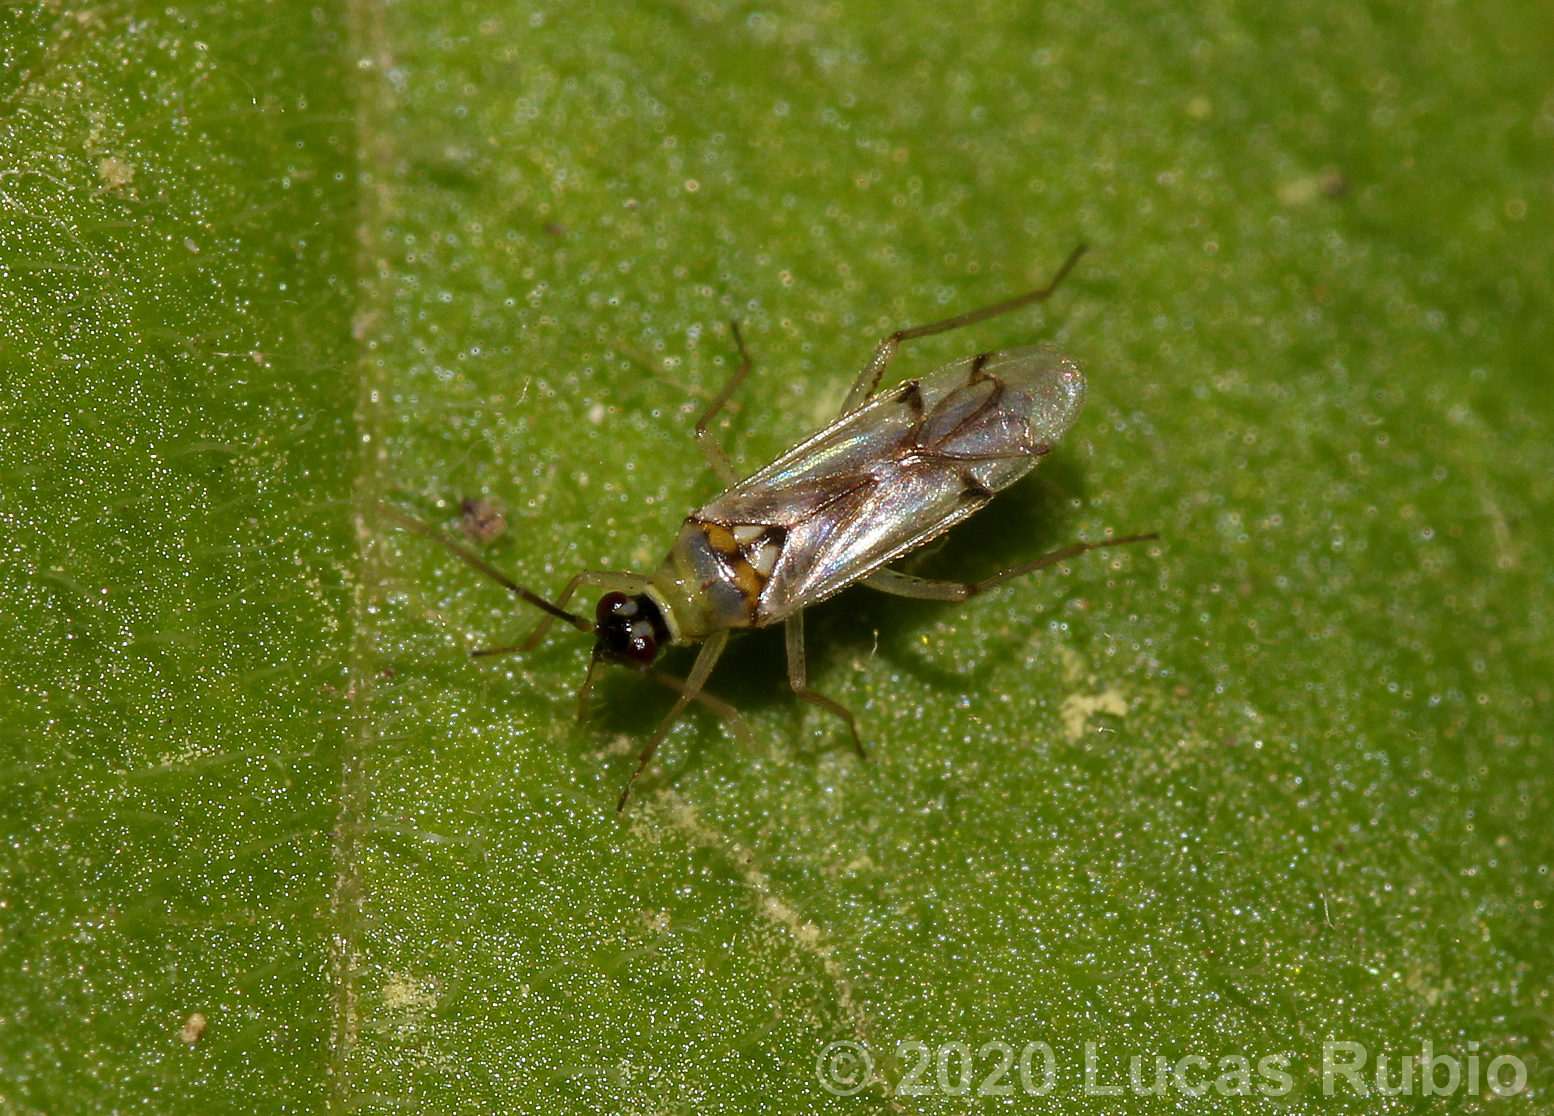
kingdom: Animalia
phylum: Arthropoda
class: Insecta
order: Hemiptera
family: Miridae
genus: Tupiocoris
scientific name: Tupiocoris cucurbitaceus
